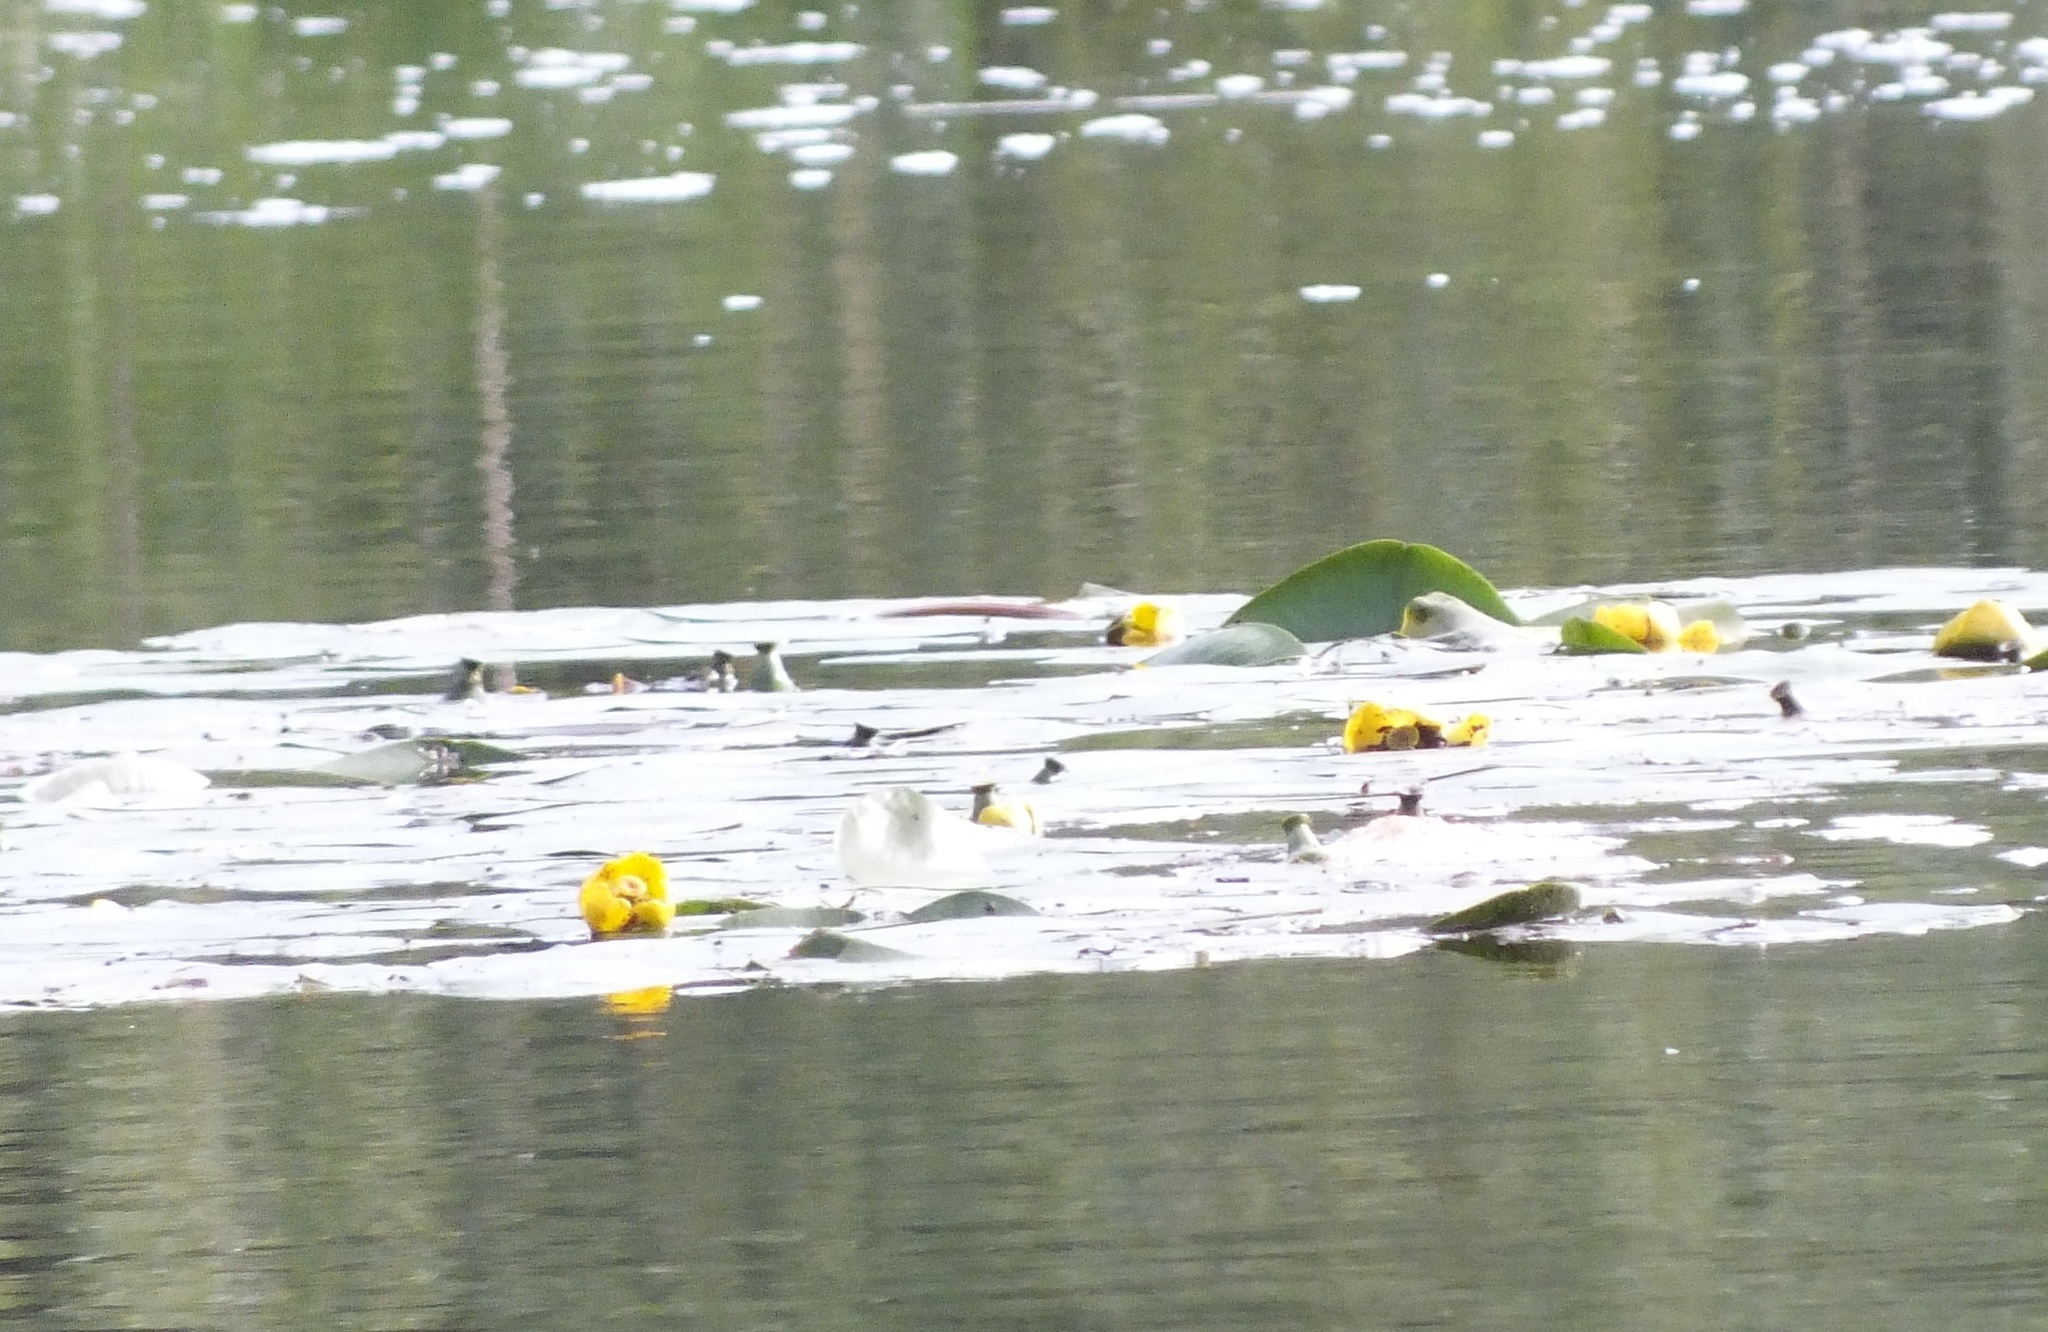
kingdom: Plantae
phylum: Tracheophyta
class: Magnoliopsida
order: Nymphaeales
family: Nymphaeaceae
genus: Nuphar
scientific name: Nuphar lutea
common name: Yellow water-lily
